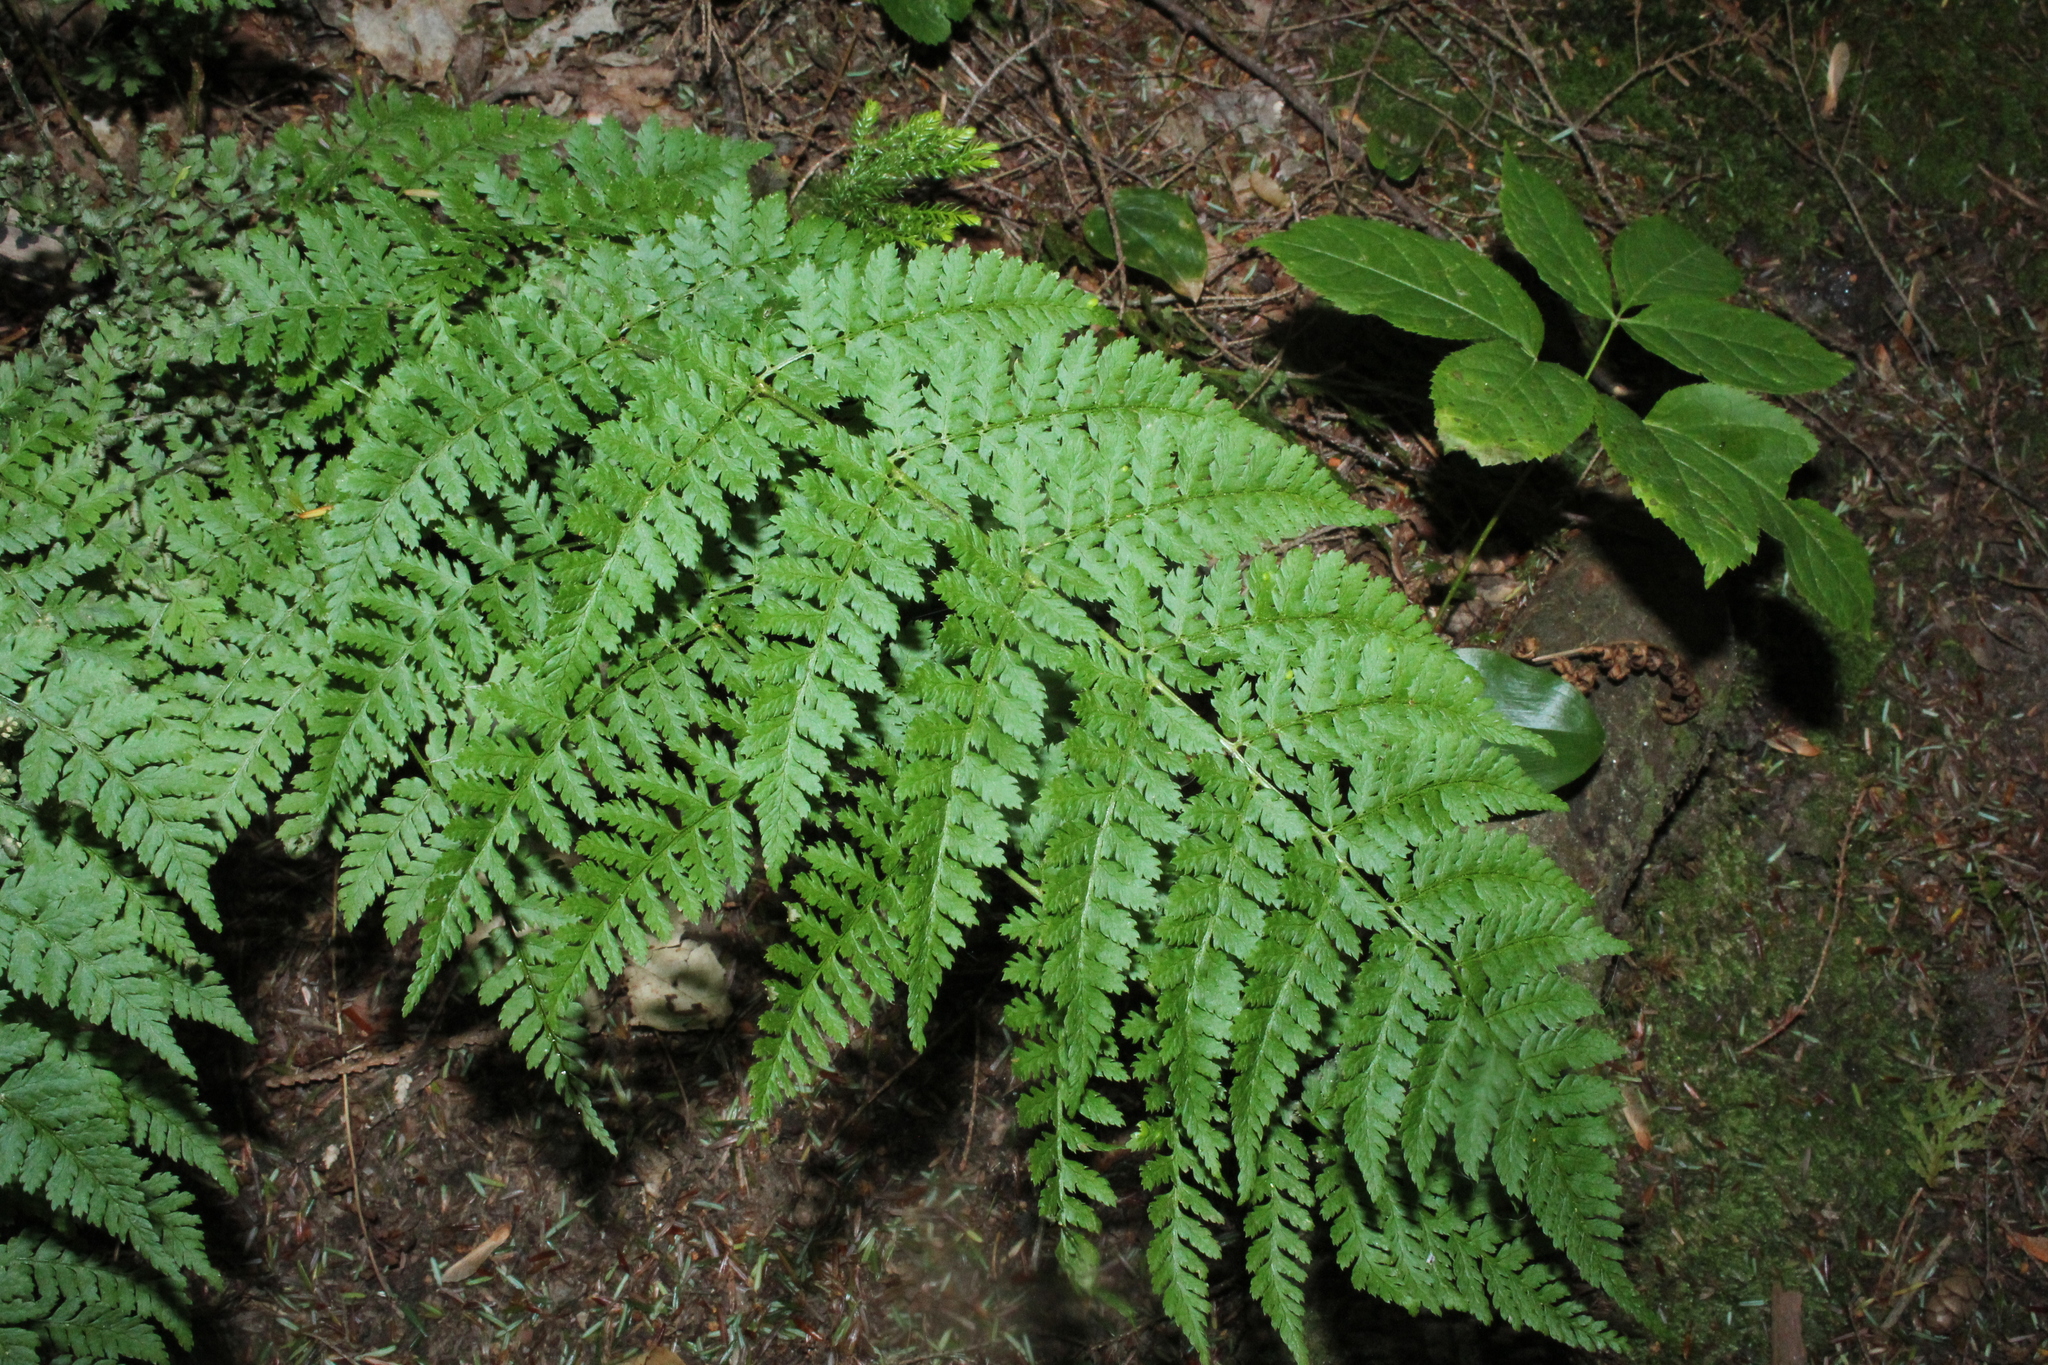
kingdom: Plantae
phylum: Tracheophyta
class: Polypodiopsida
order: Polypodiales
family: Dryopteridaceae
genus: Dryopteris
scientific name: Dryopteris intermedia
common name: Evergreen wood fern
